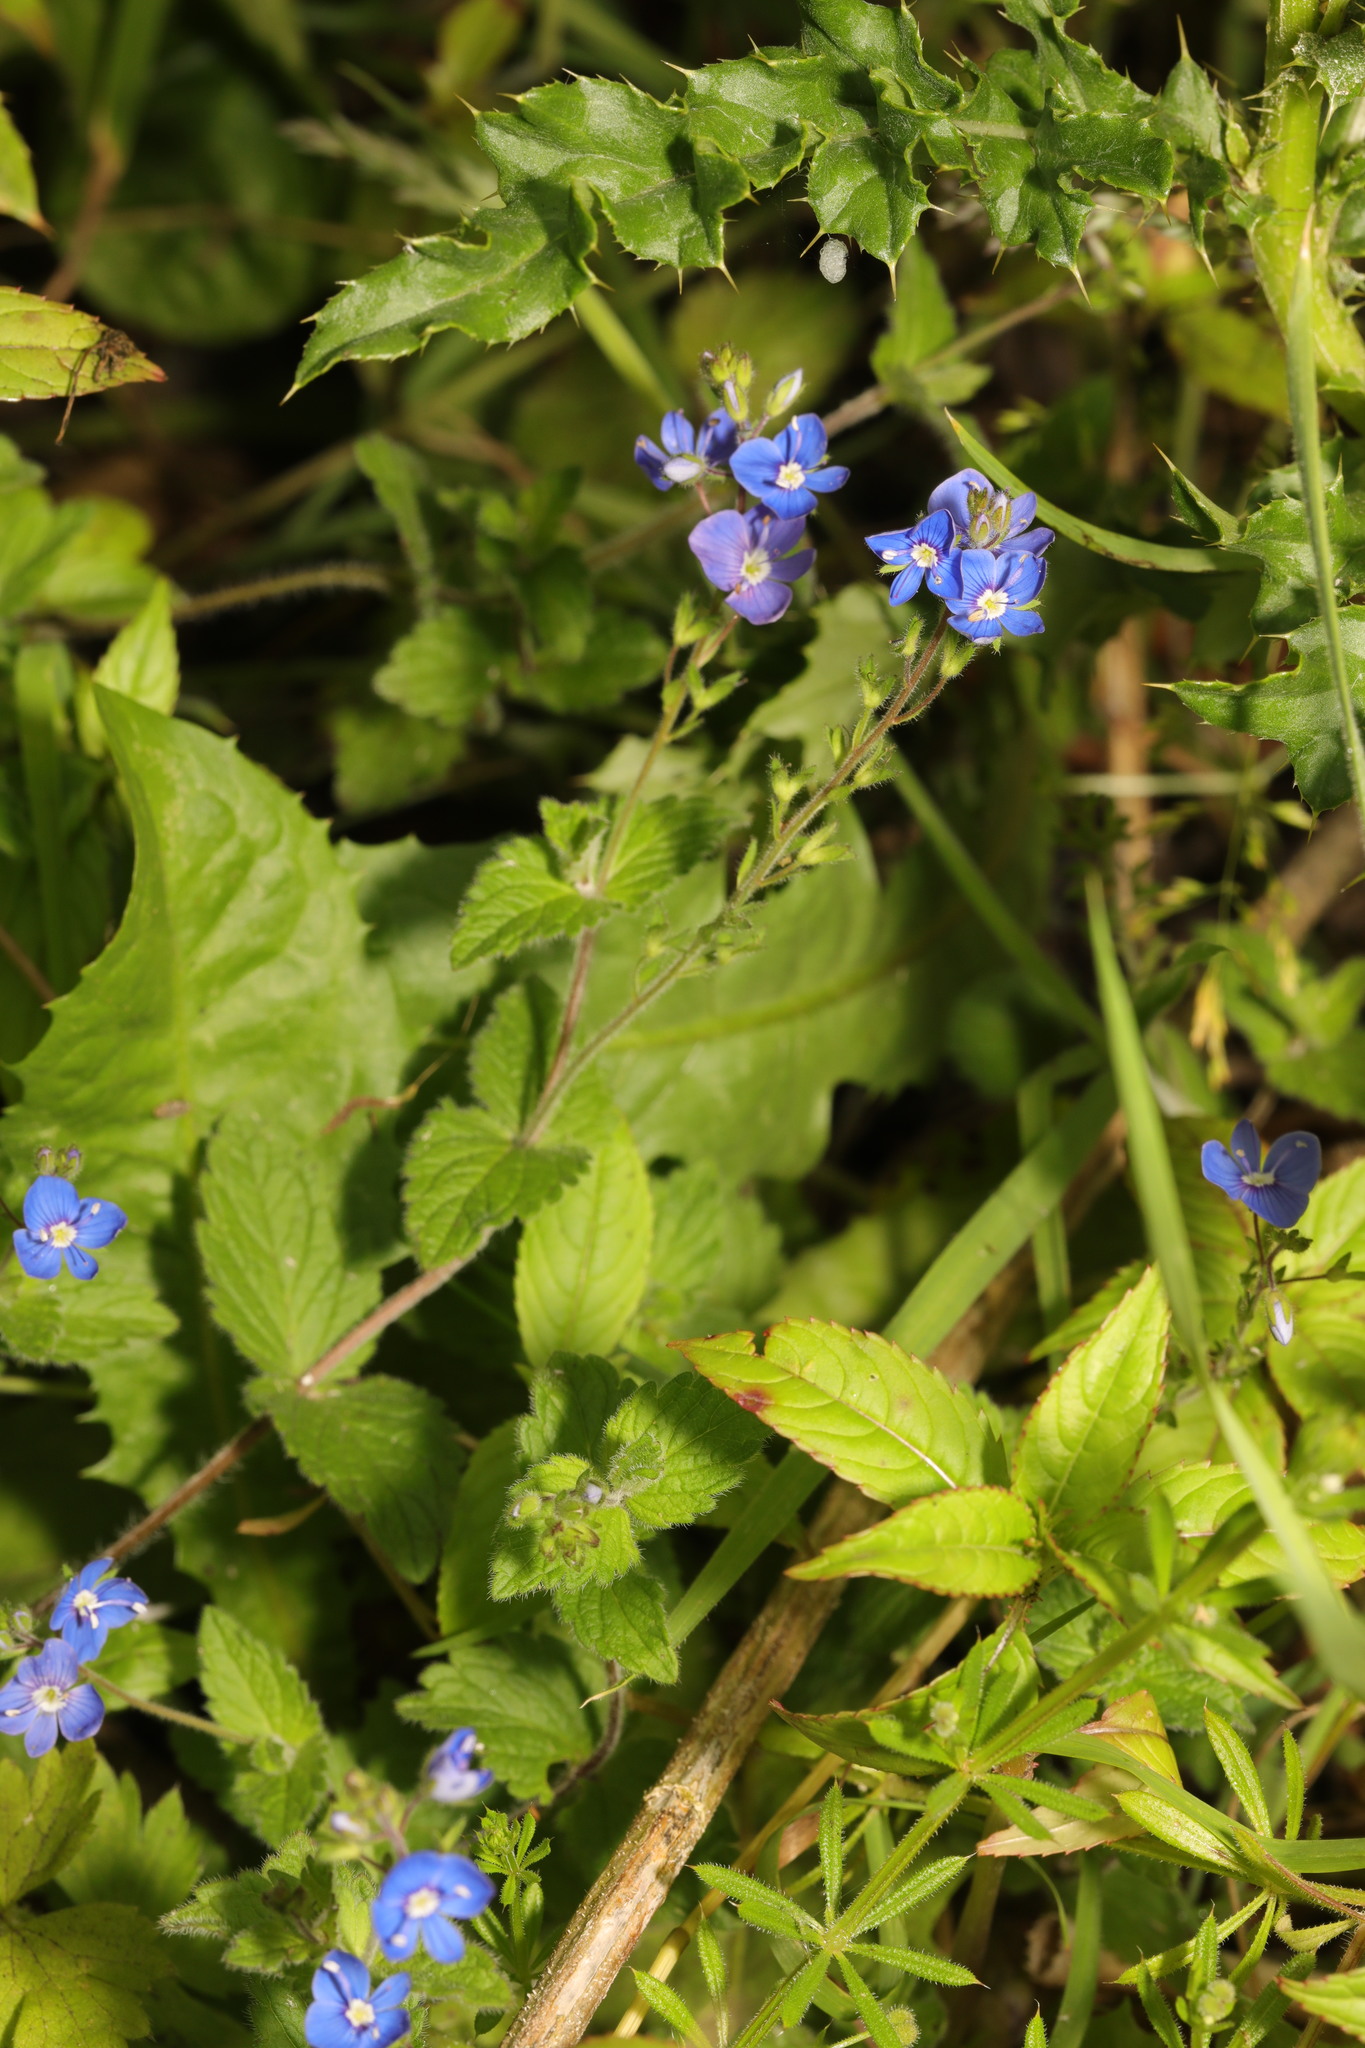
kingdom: Plantae
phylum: Tracheophyta
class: Magnoliopsida
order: Lamiales
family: Plantaginaceae
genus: Veronica
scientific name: Veronica chamaedrys
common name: Germander speedwell
